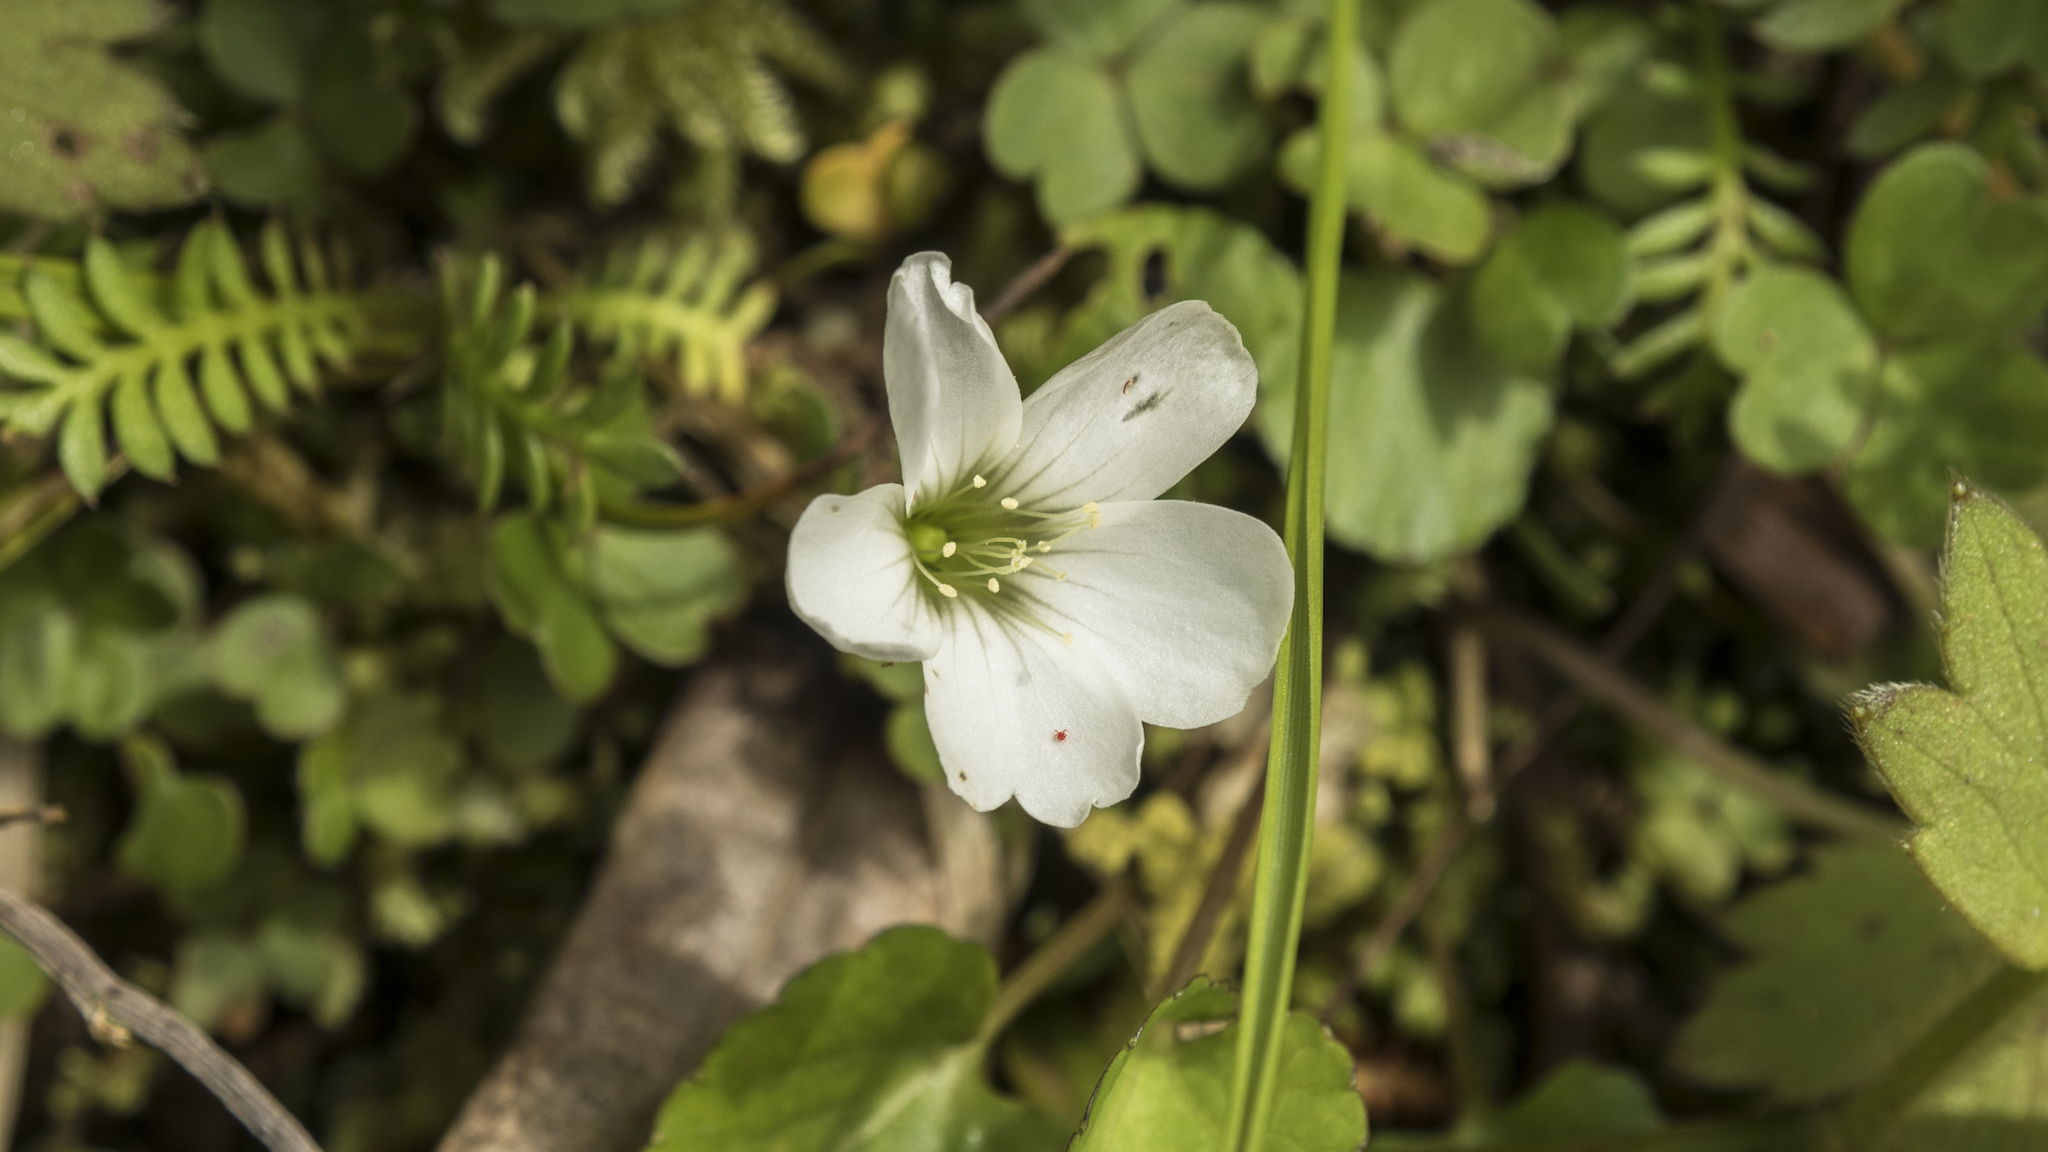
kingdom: Plantae
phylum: Tracheophyta
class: Magnoliopsida
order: Oxalidales
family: Oxalidaceae
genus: Oxalis
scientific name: Oxalis magellanica
